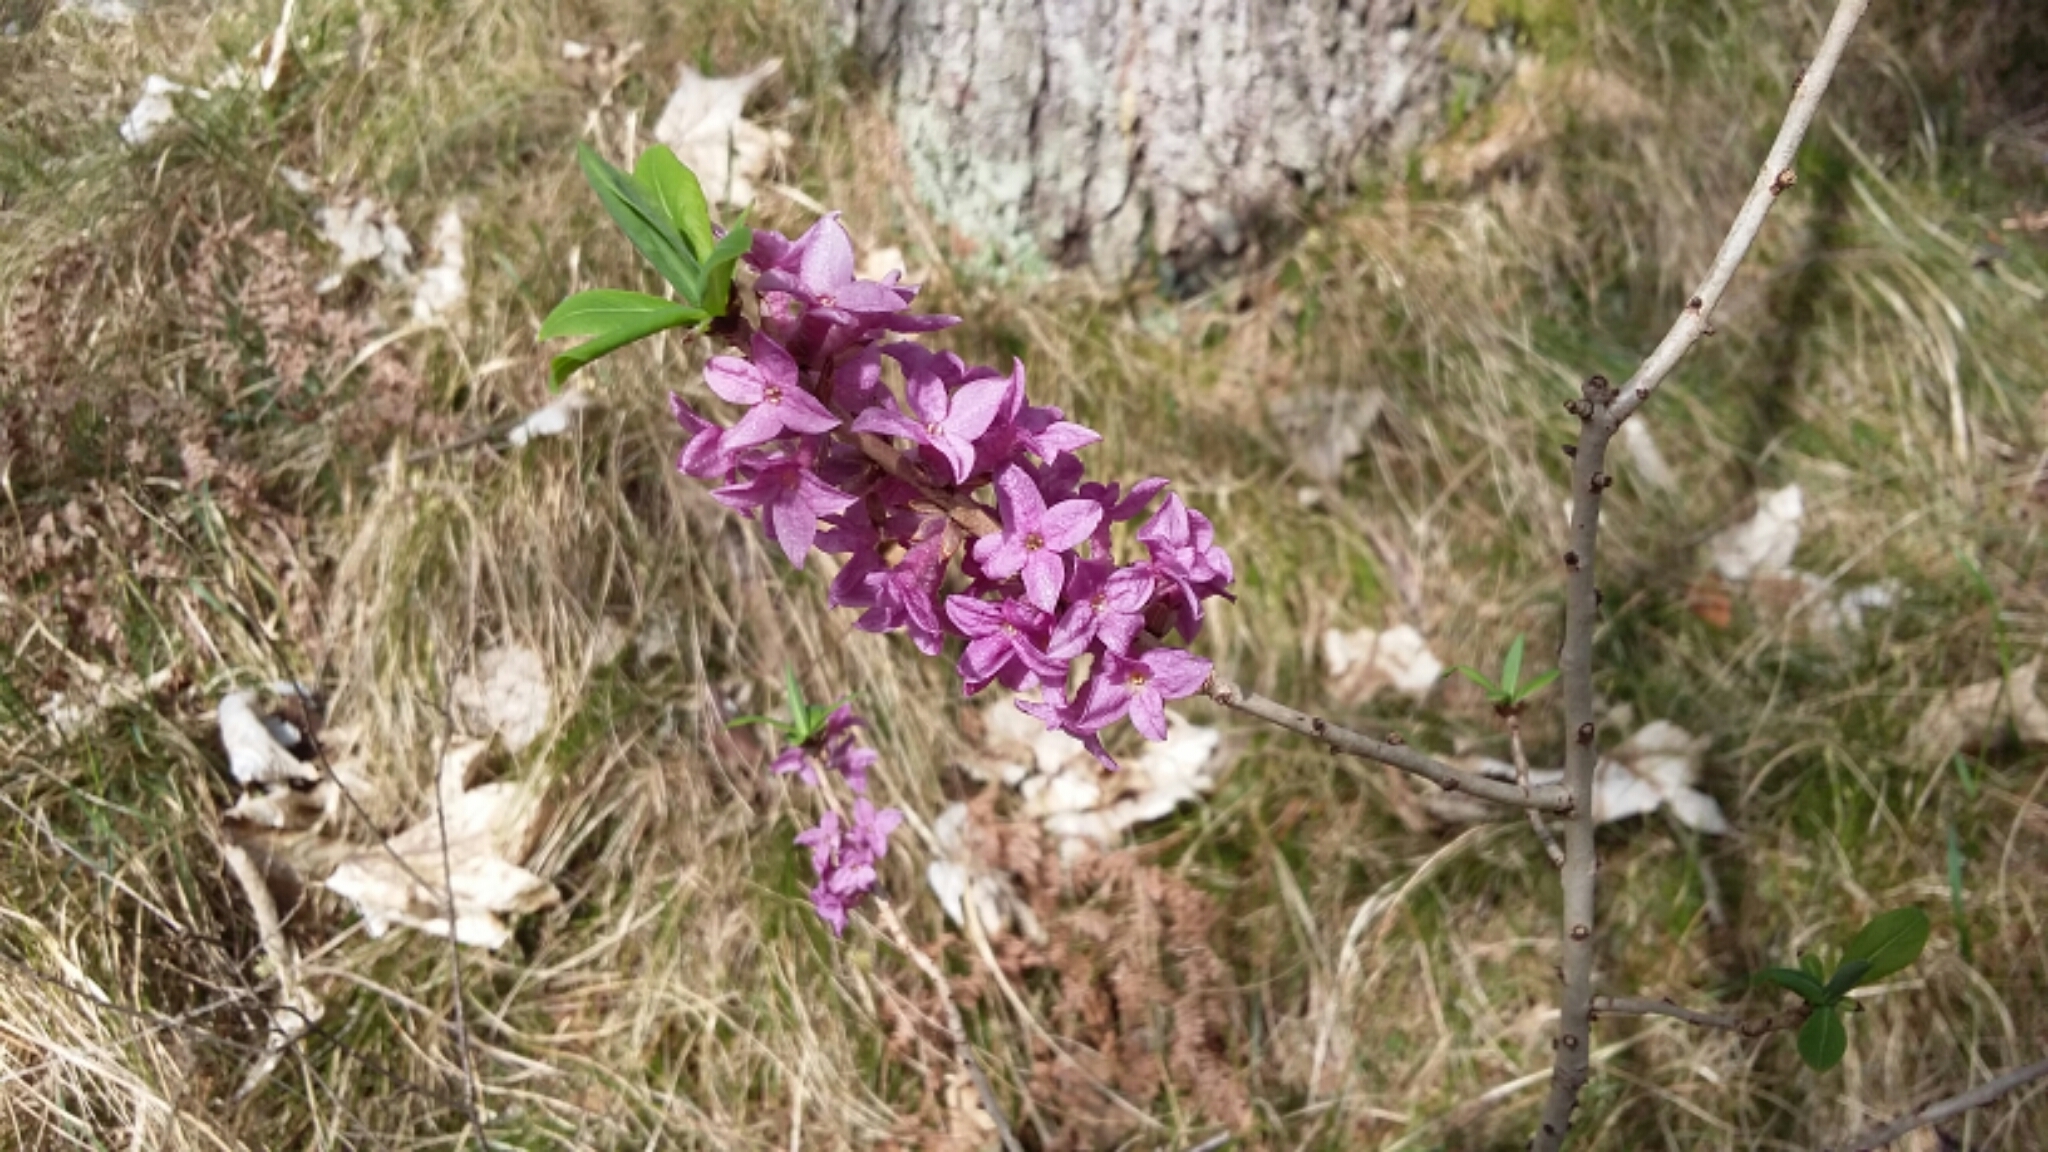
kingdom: Plantae
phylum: Tracheophyta
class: Magnoliopsida
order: Malvales
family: Thymelaeaceae
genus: Daphne
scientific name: Daphne mezereum
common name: Mezereon
